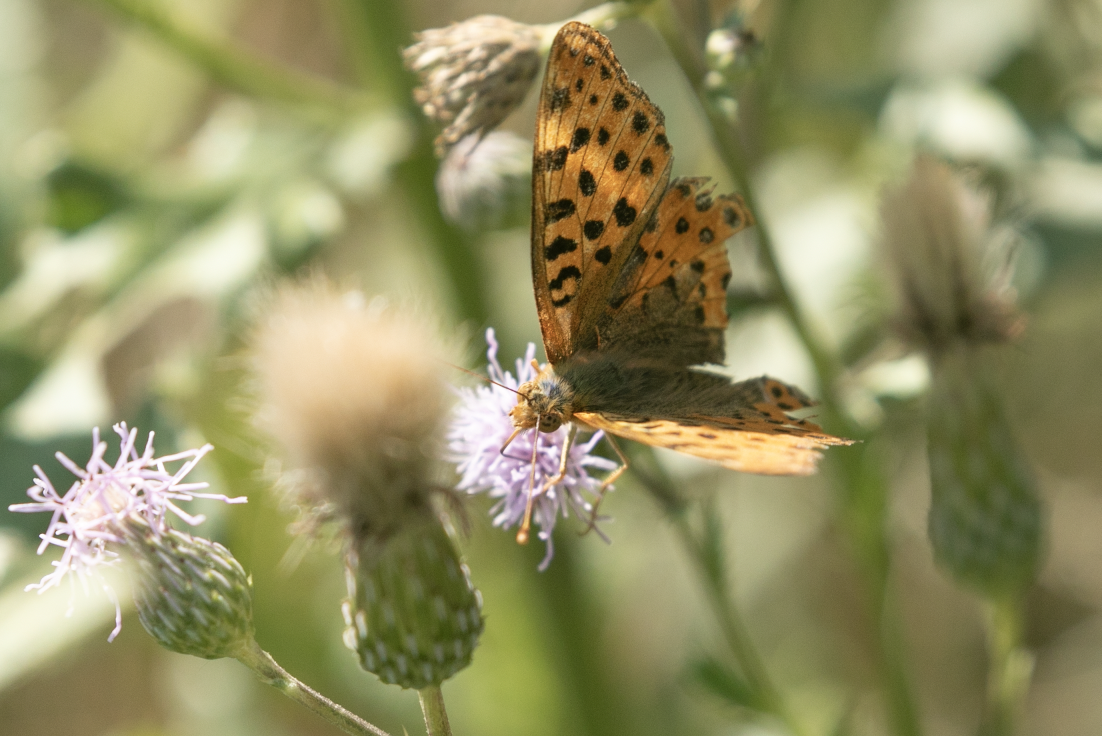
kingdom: Animalia
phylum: Arthropoda
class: Insecta
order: Lepidoptera
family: Nymphalidae
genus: Issoria
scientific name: Issoria lathonia
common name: Queen of spain fritillary
